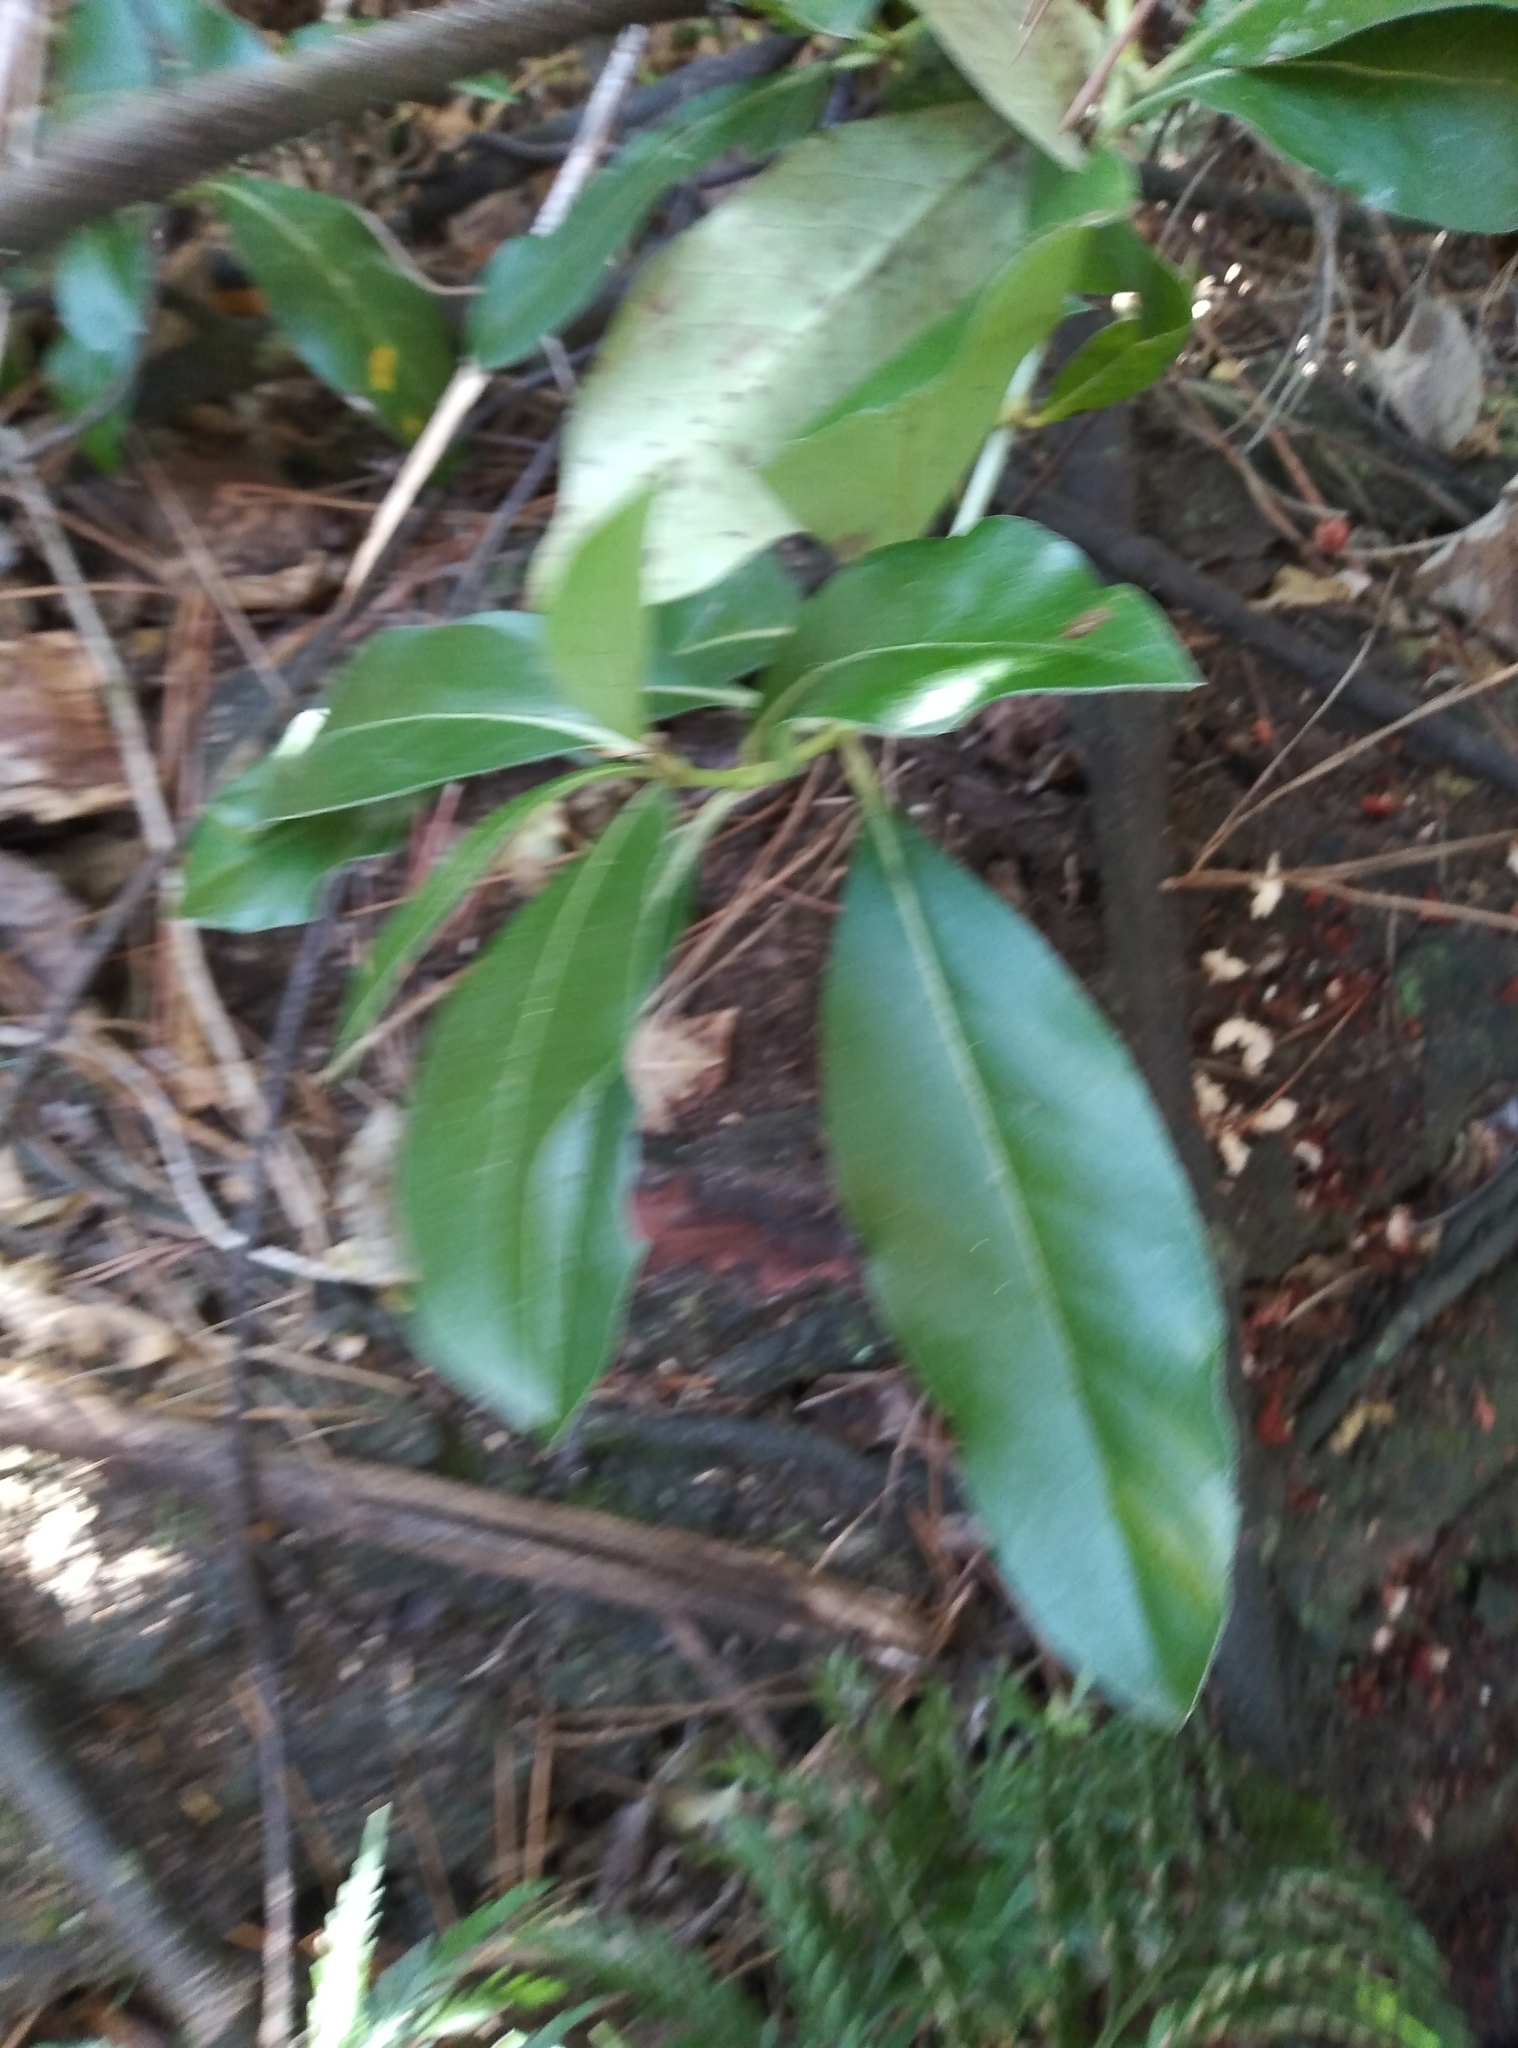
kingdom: Plantae
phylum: Tracheophyta
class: Magnoliopsida
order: Gentianales
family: Rubiaceae
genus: Coprosma
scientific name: Coprosma robusta
